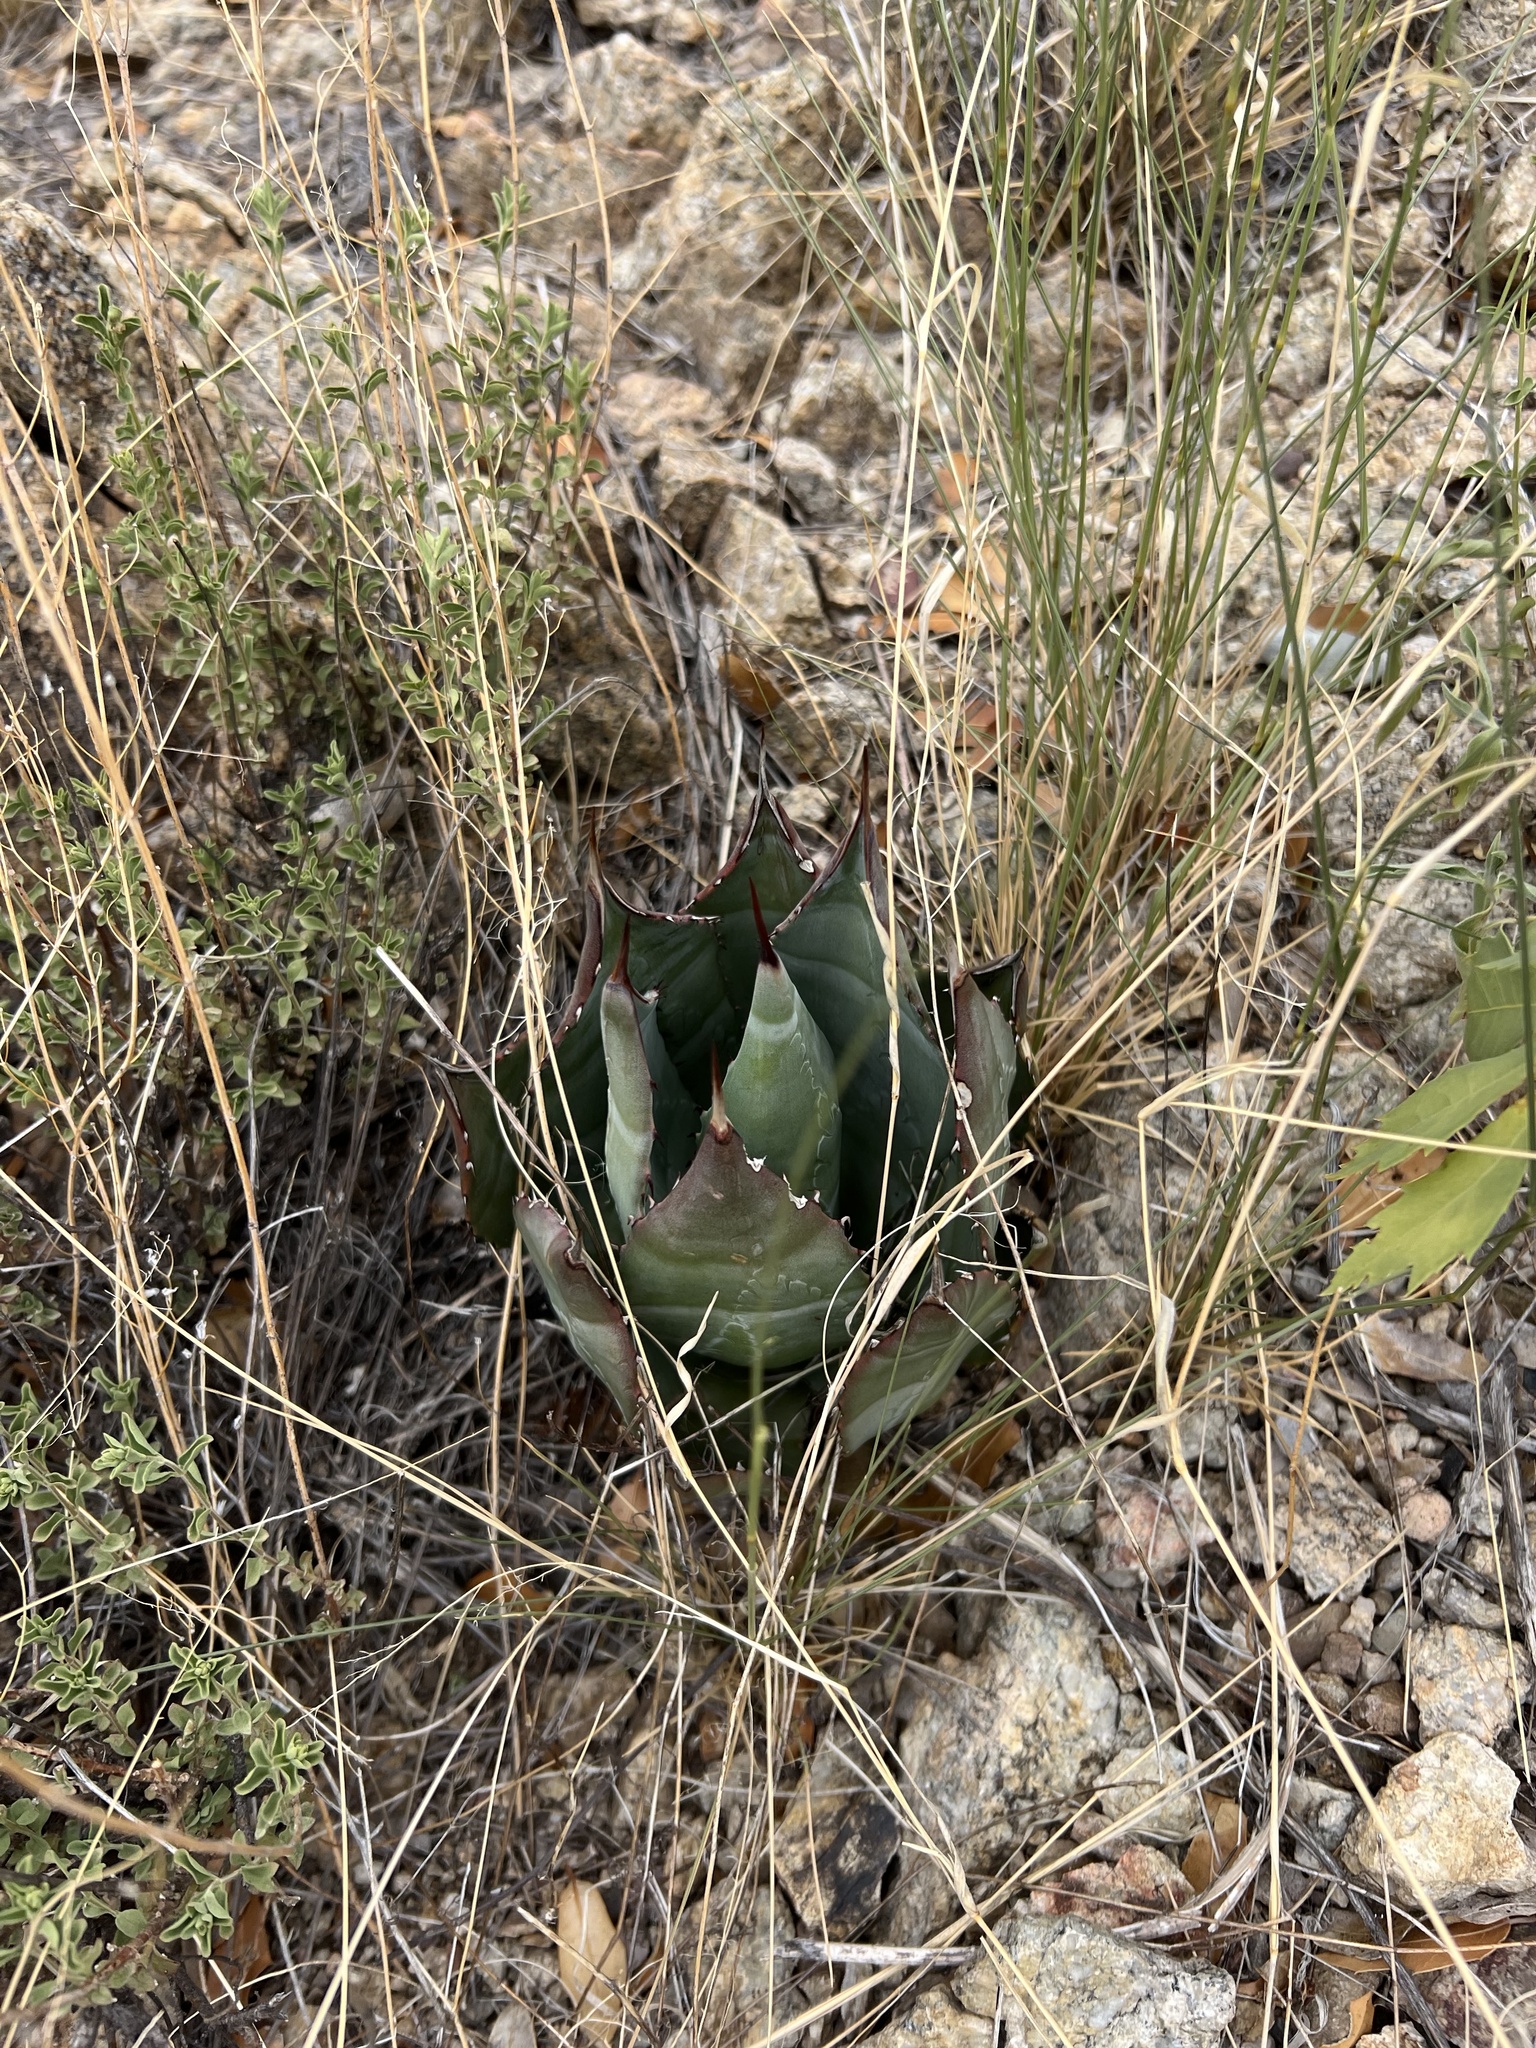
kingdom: Plantae
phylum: Tracheophyta
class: Liliopsida
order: Asparagales
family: Asparagaceae
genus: Agave
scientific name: Agave palmeri
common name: Palmer agave
